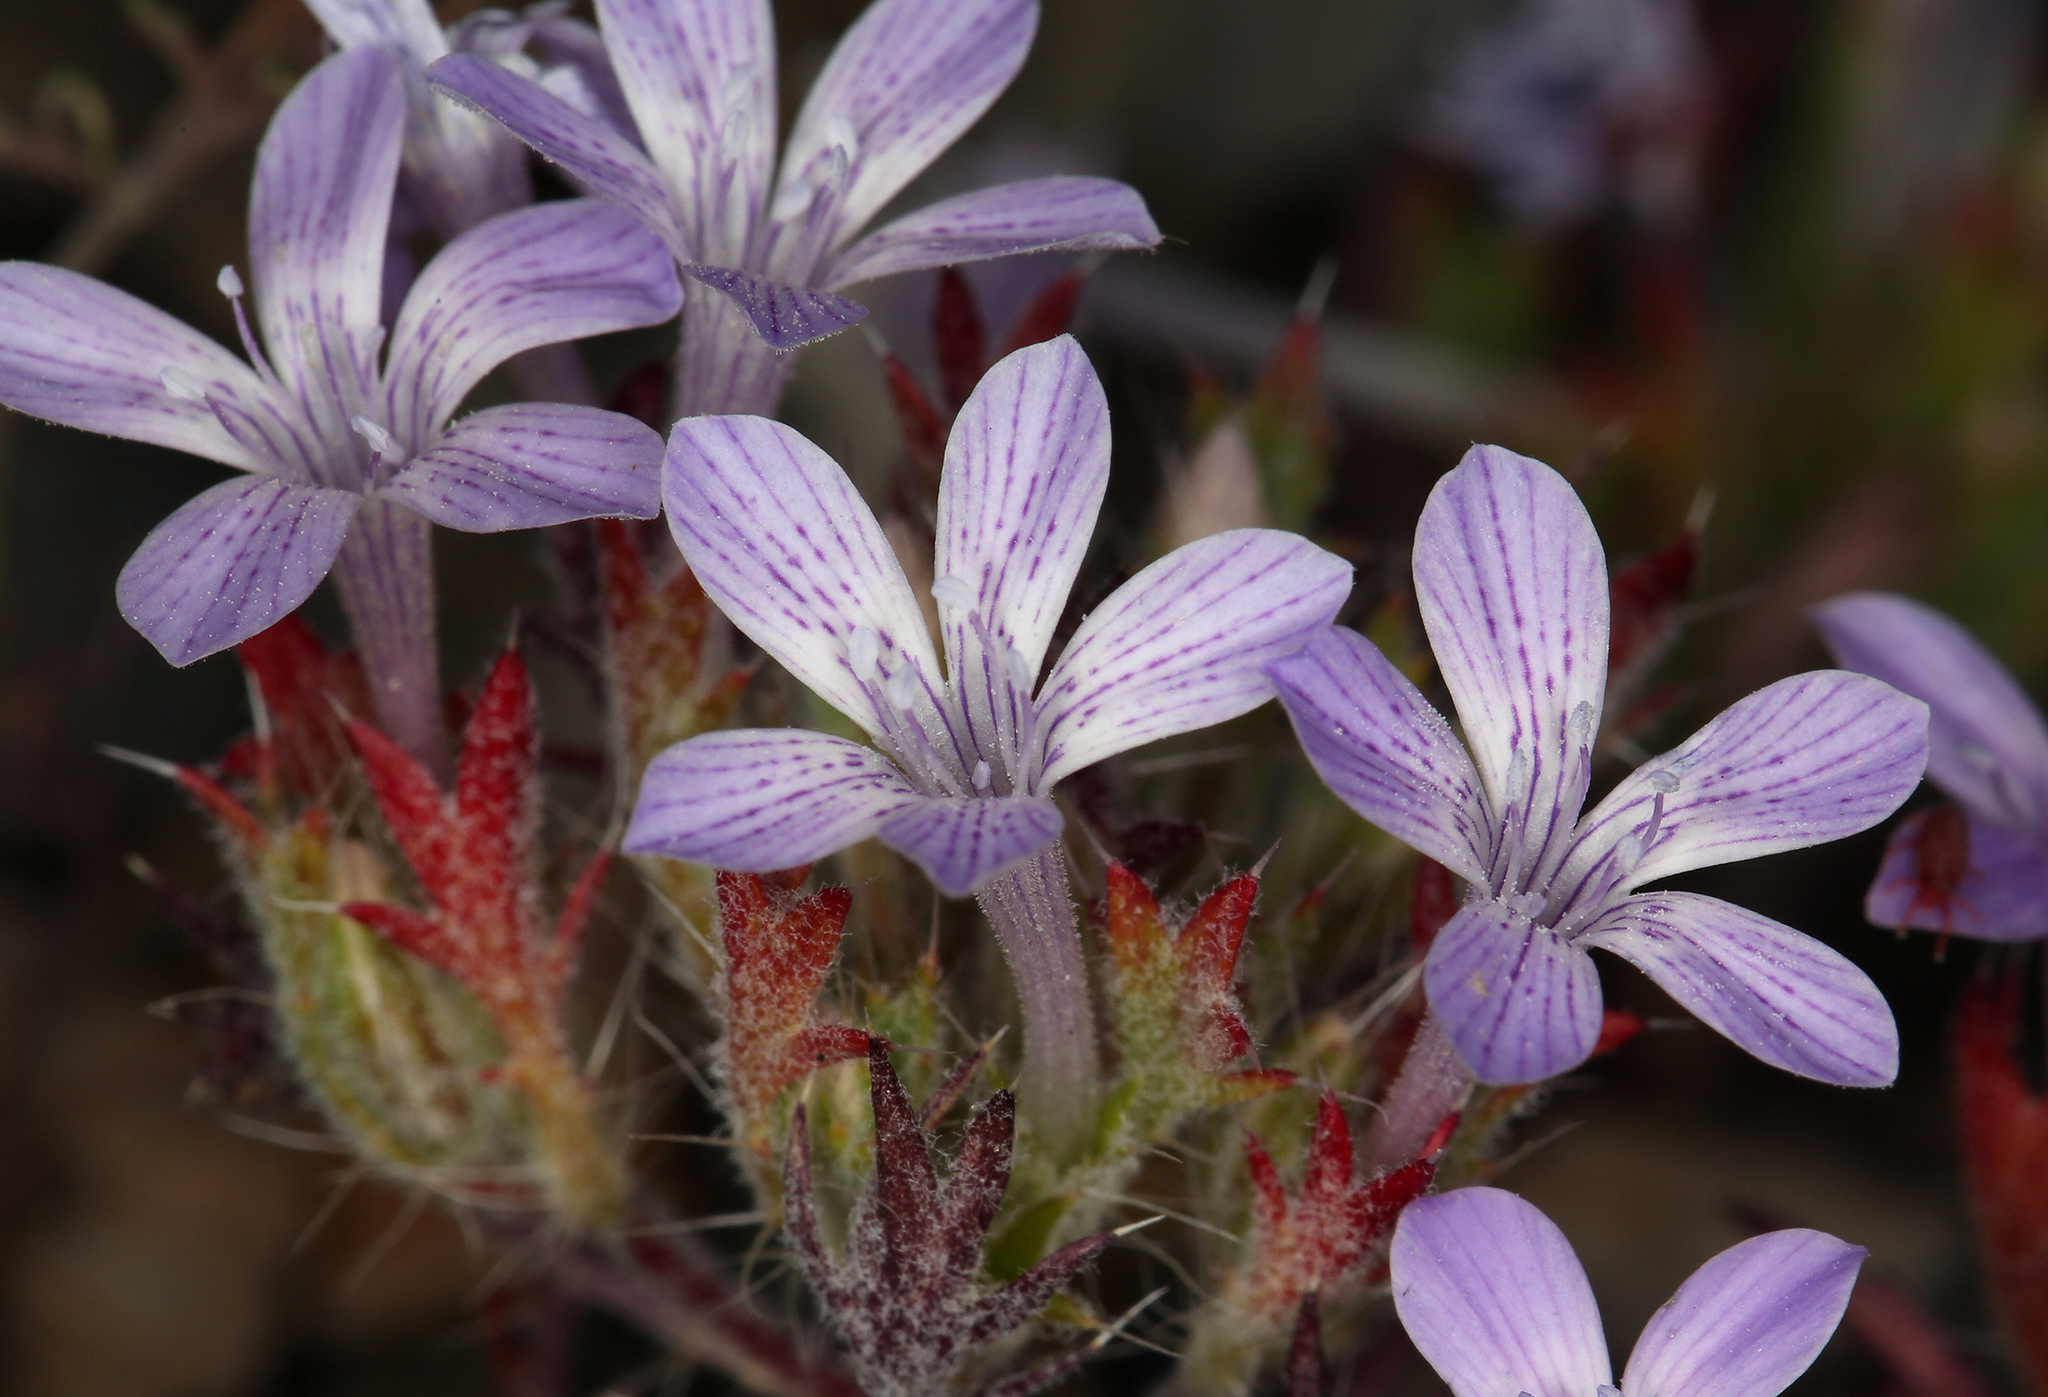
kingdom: Plantae
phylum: Tracheophyta
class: Magnoliopsida
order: Ericales
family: Polemoniaceae
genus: Langloisia
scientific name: Langloisia setosissima
